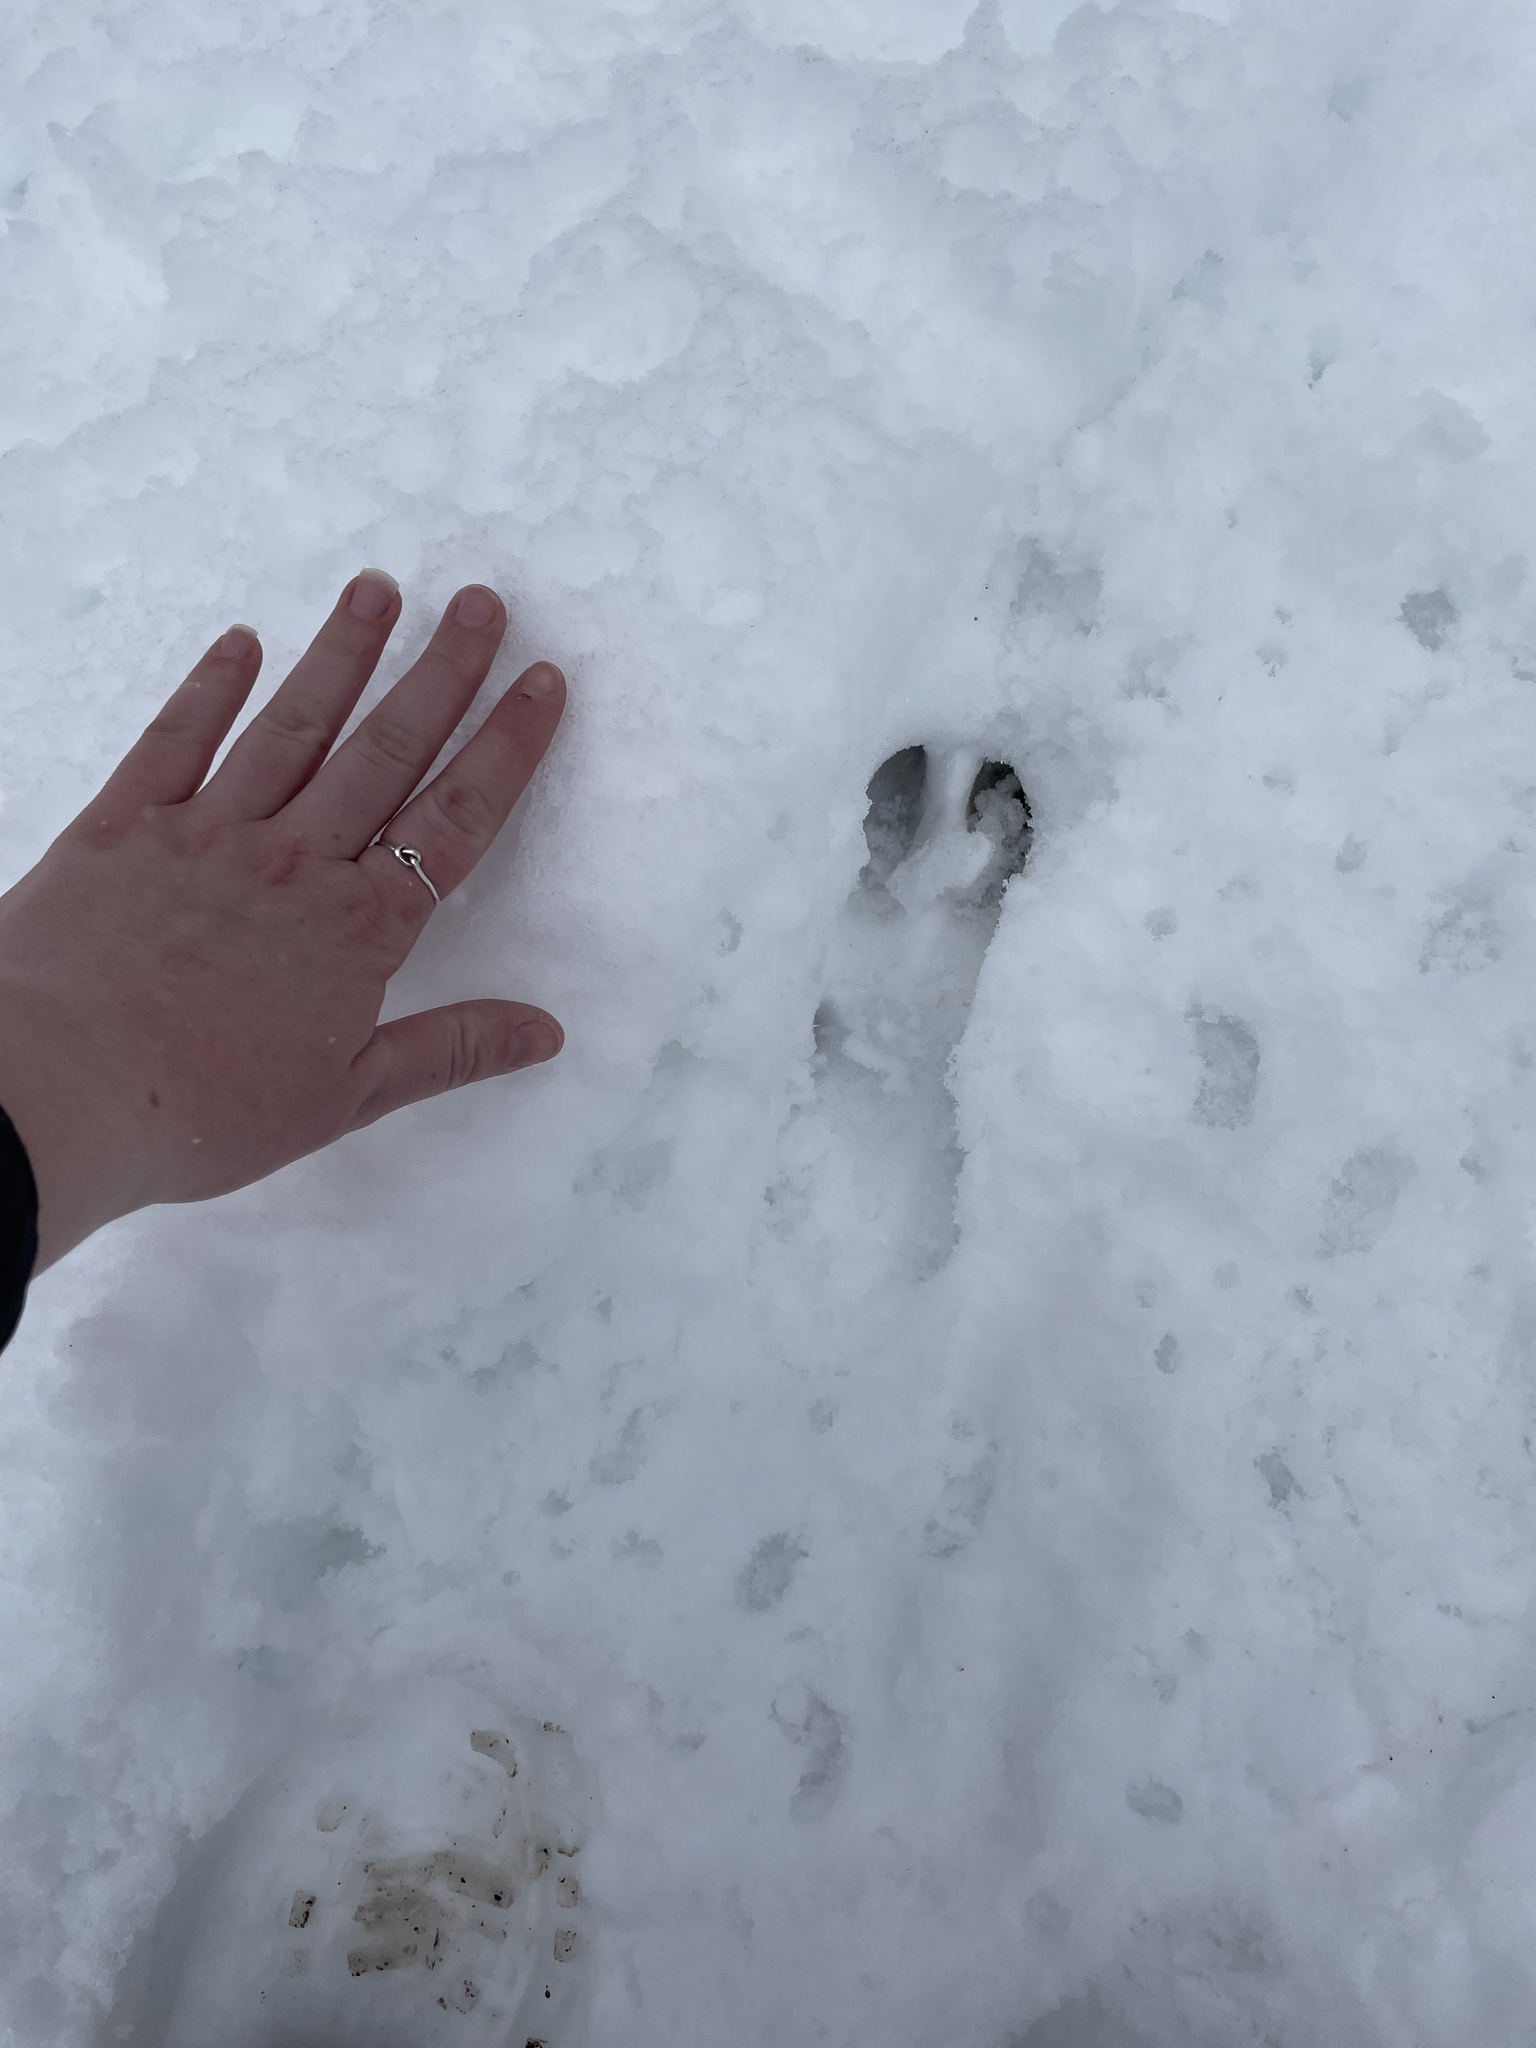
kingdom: Animalia
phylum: Chordata
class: Mammalia
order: Artiodactyla
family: Cervidae
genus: Odocoileus
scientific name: Odocoileus virginianus
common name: White-tailed deer
